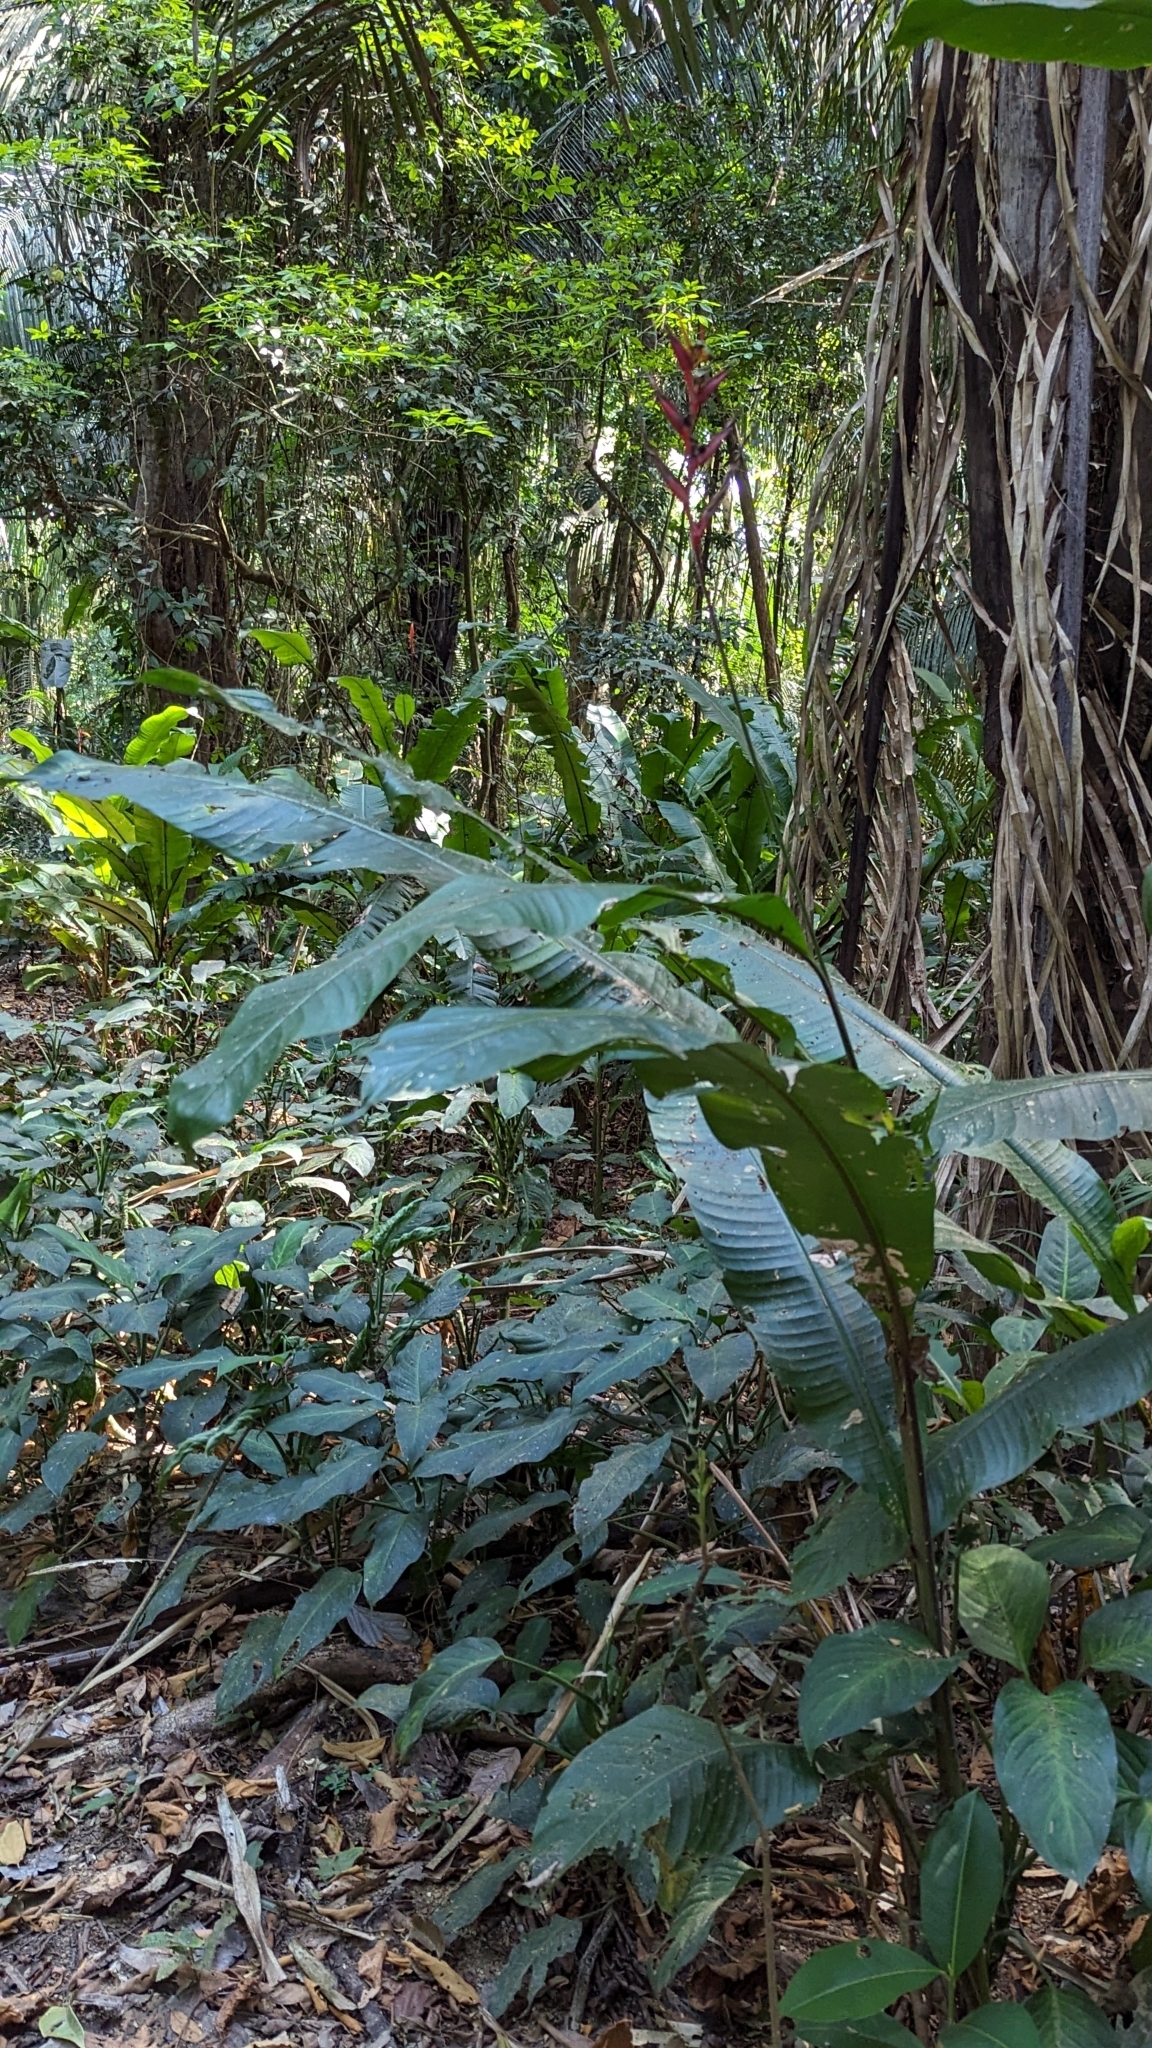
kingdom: Plantae
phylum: Tracheophyta
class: Liliopsida
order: Zingiberales
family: Heliconiaceae
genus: Heliconia
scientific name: Heliconia osaensis
